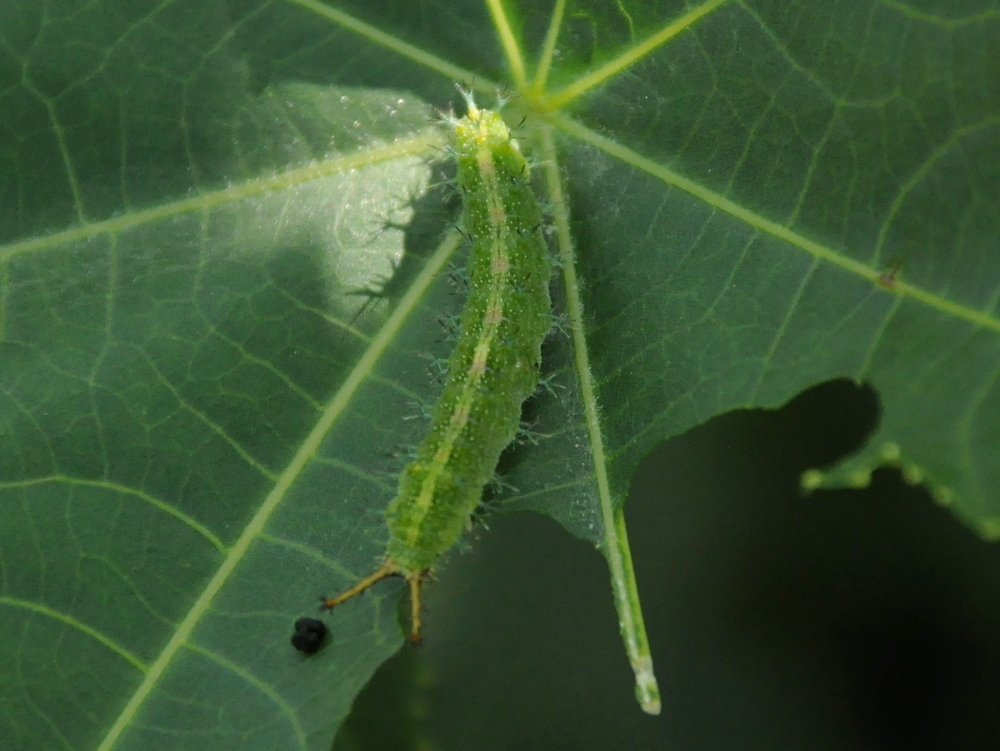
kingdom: Animalia
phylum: Arthropoda
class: Insecta
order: Lepidoptera
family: Nymphalidae
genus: Ariadne
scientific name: Ariadne merione
